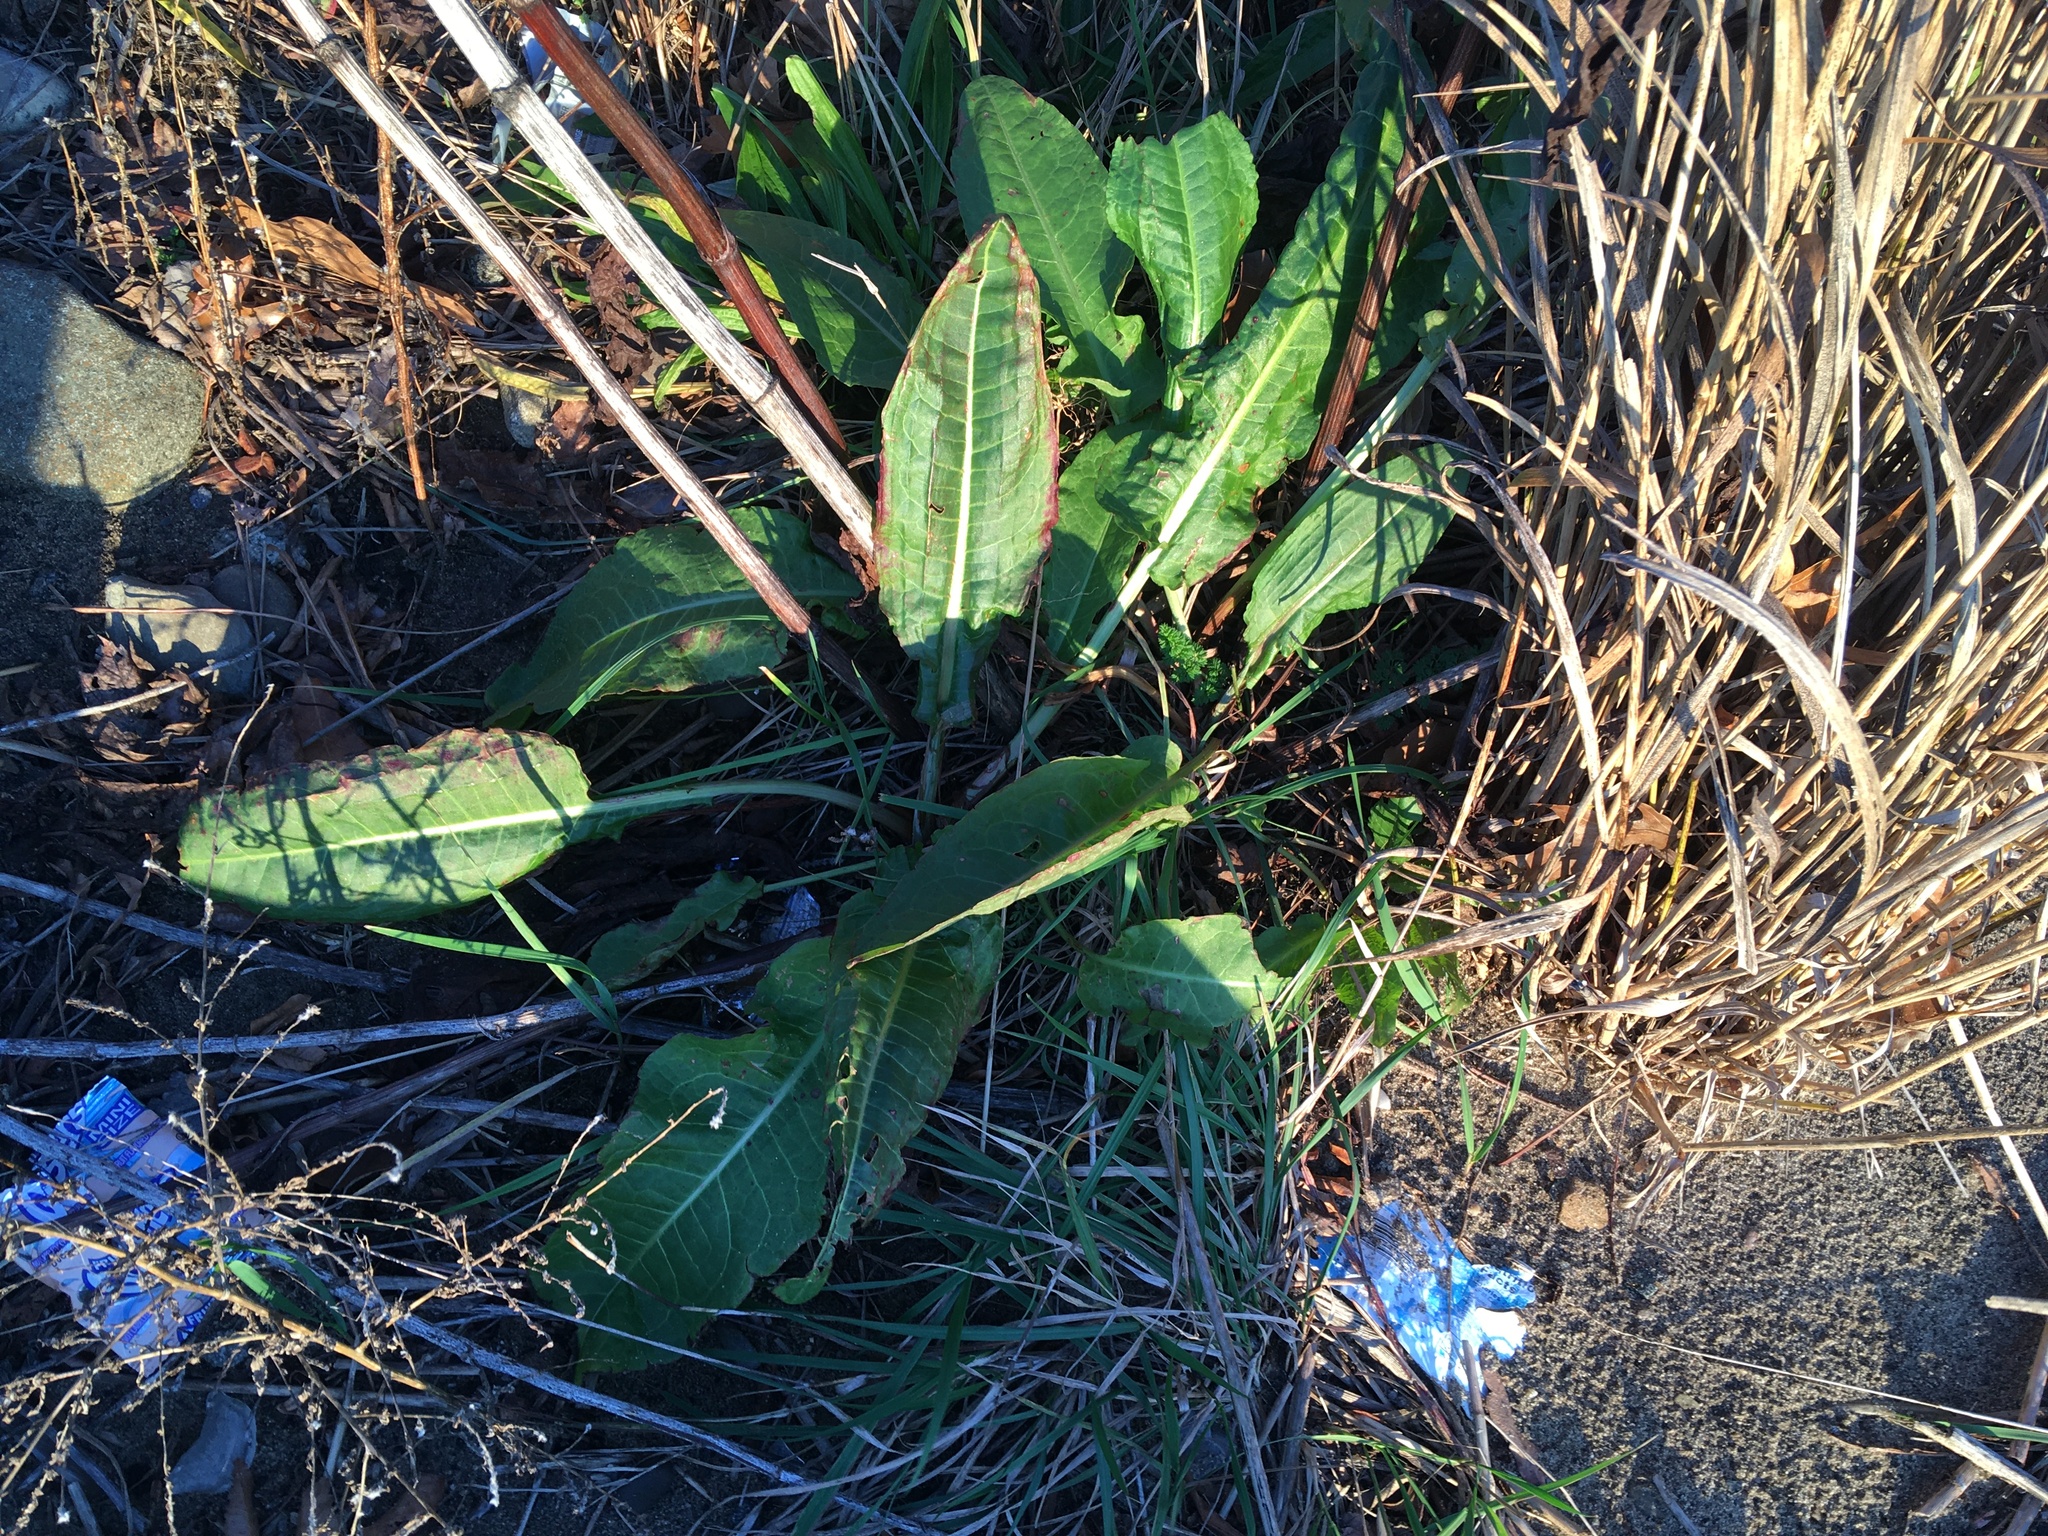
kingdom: Plantae
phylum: Tracheophyta
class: Magnoliopsida
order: Caryophyllales
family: Polygonaceae
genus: Rumex
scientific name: Rumex obtusifolius
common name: Bitter dock
